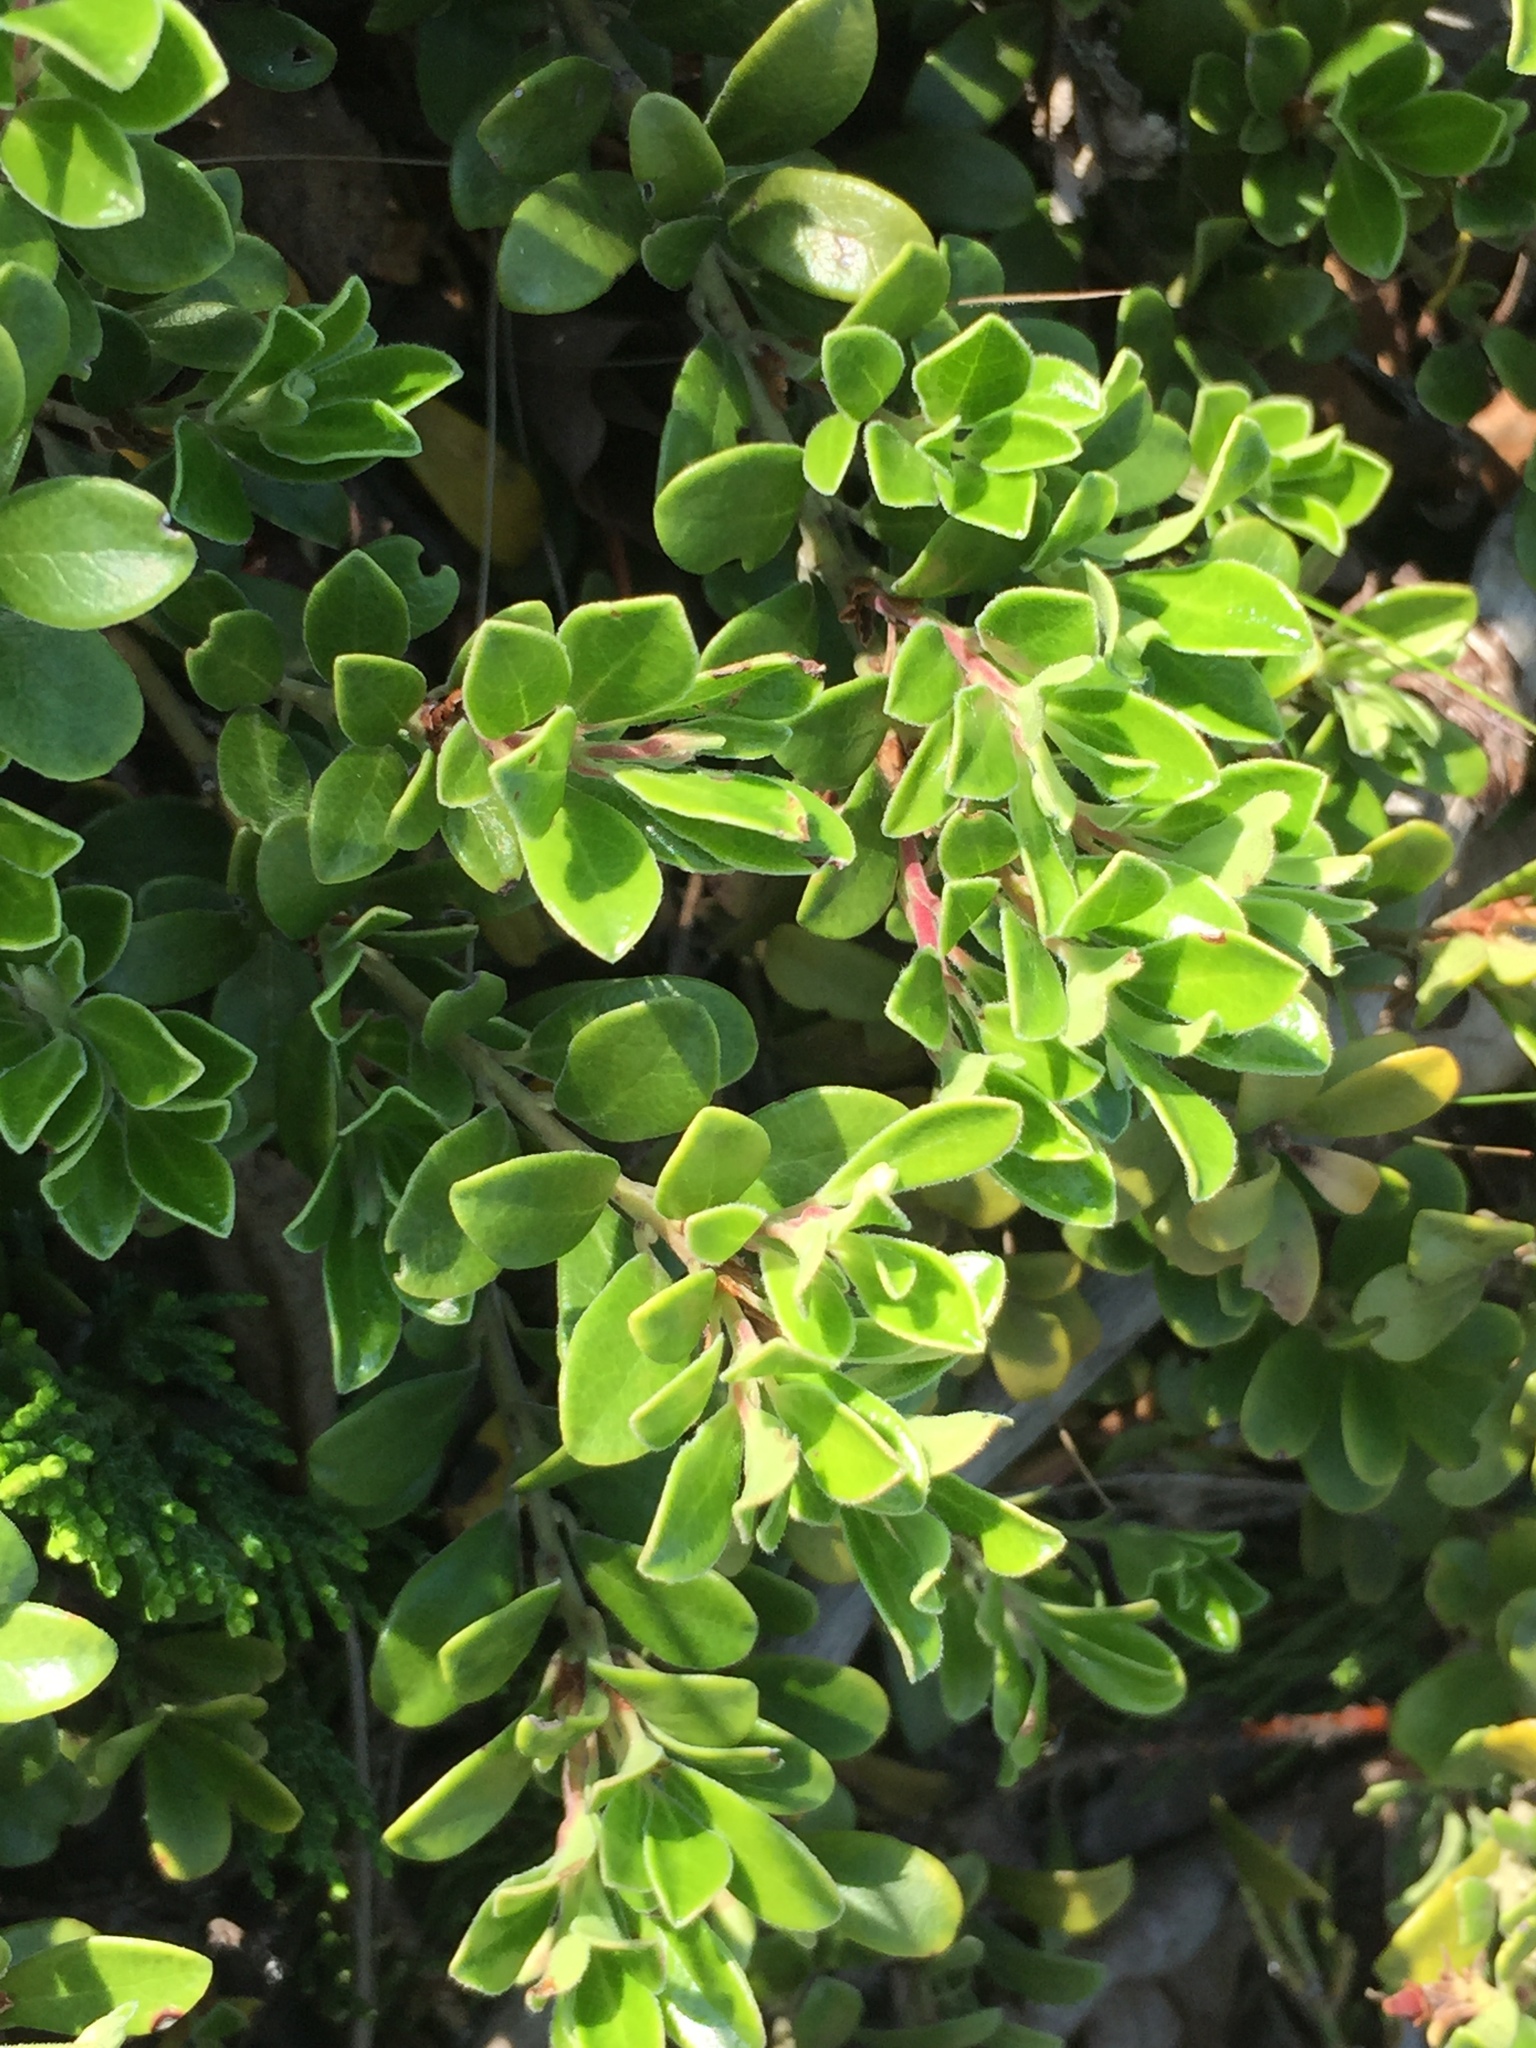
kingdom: Plantae
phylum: Tracheophyta
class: Magnoliopsida
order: Ericales
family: Ericaceae
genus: Arctostaphylos
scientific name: Arctostaphylos uva-ursi
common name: Bearberry
